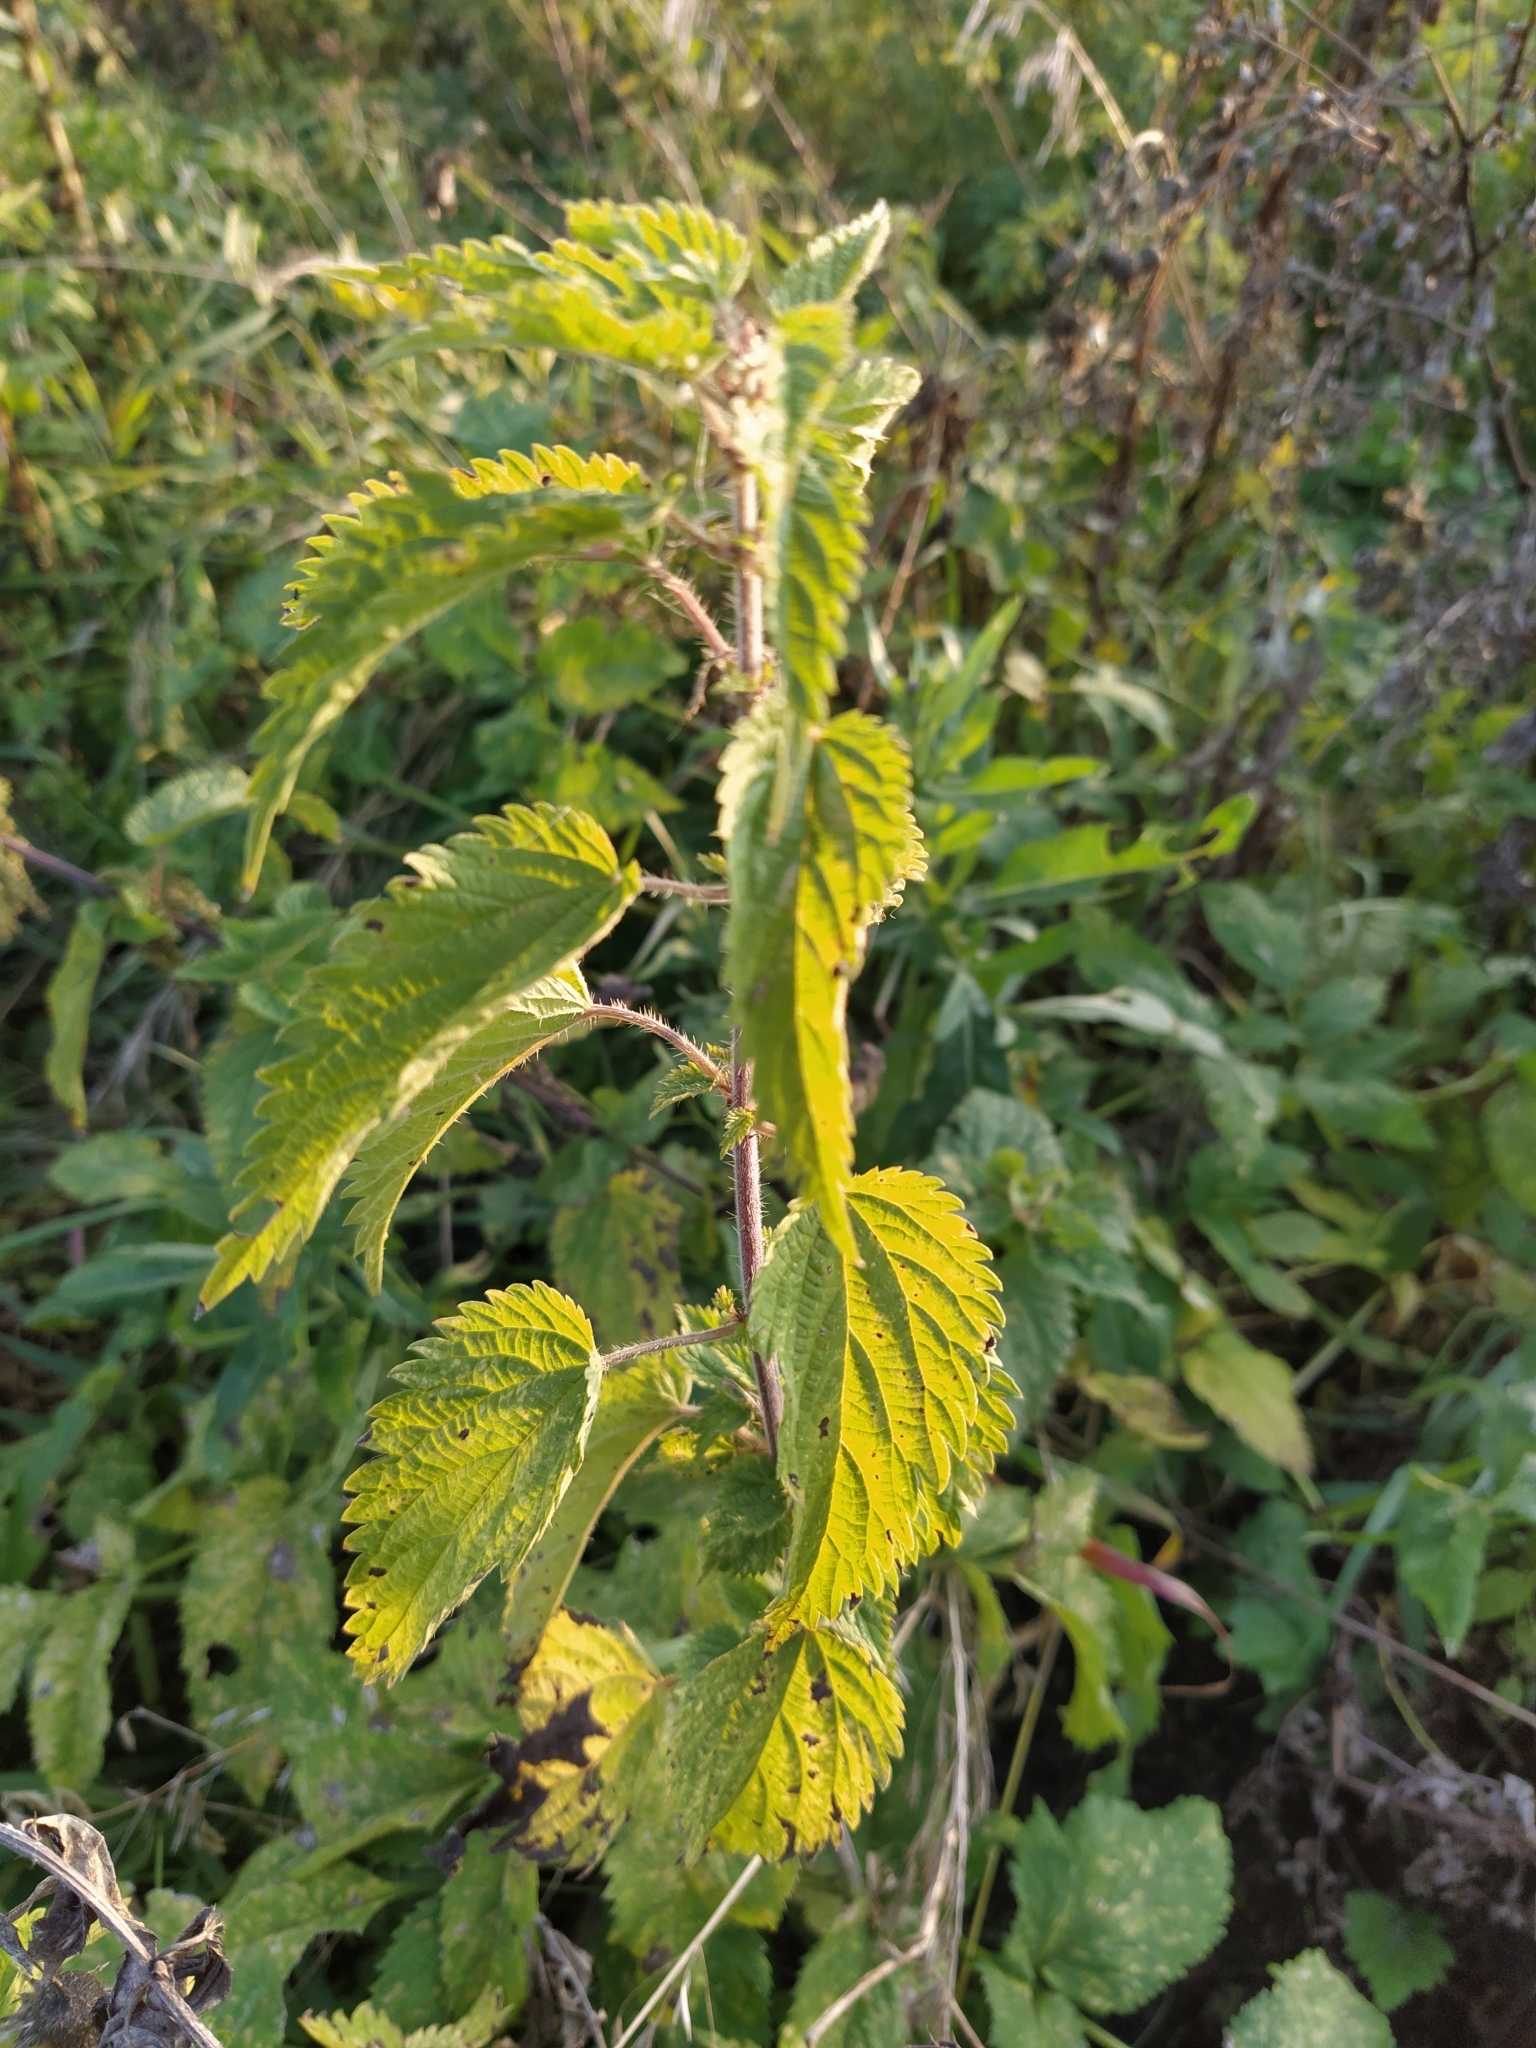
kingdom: Plantae
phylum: Tracheophyta
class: Magnoliopsida
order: Rosales
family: Urticaceae
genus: Urtica
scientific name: Urtica dioica
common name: Common nettle
